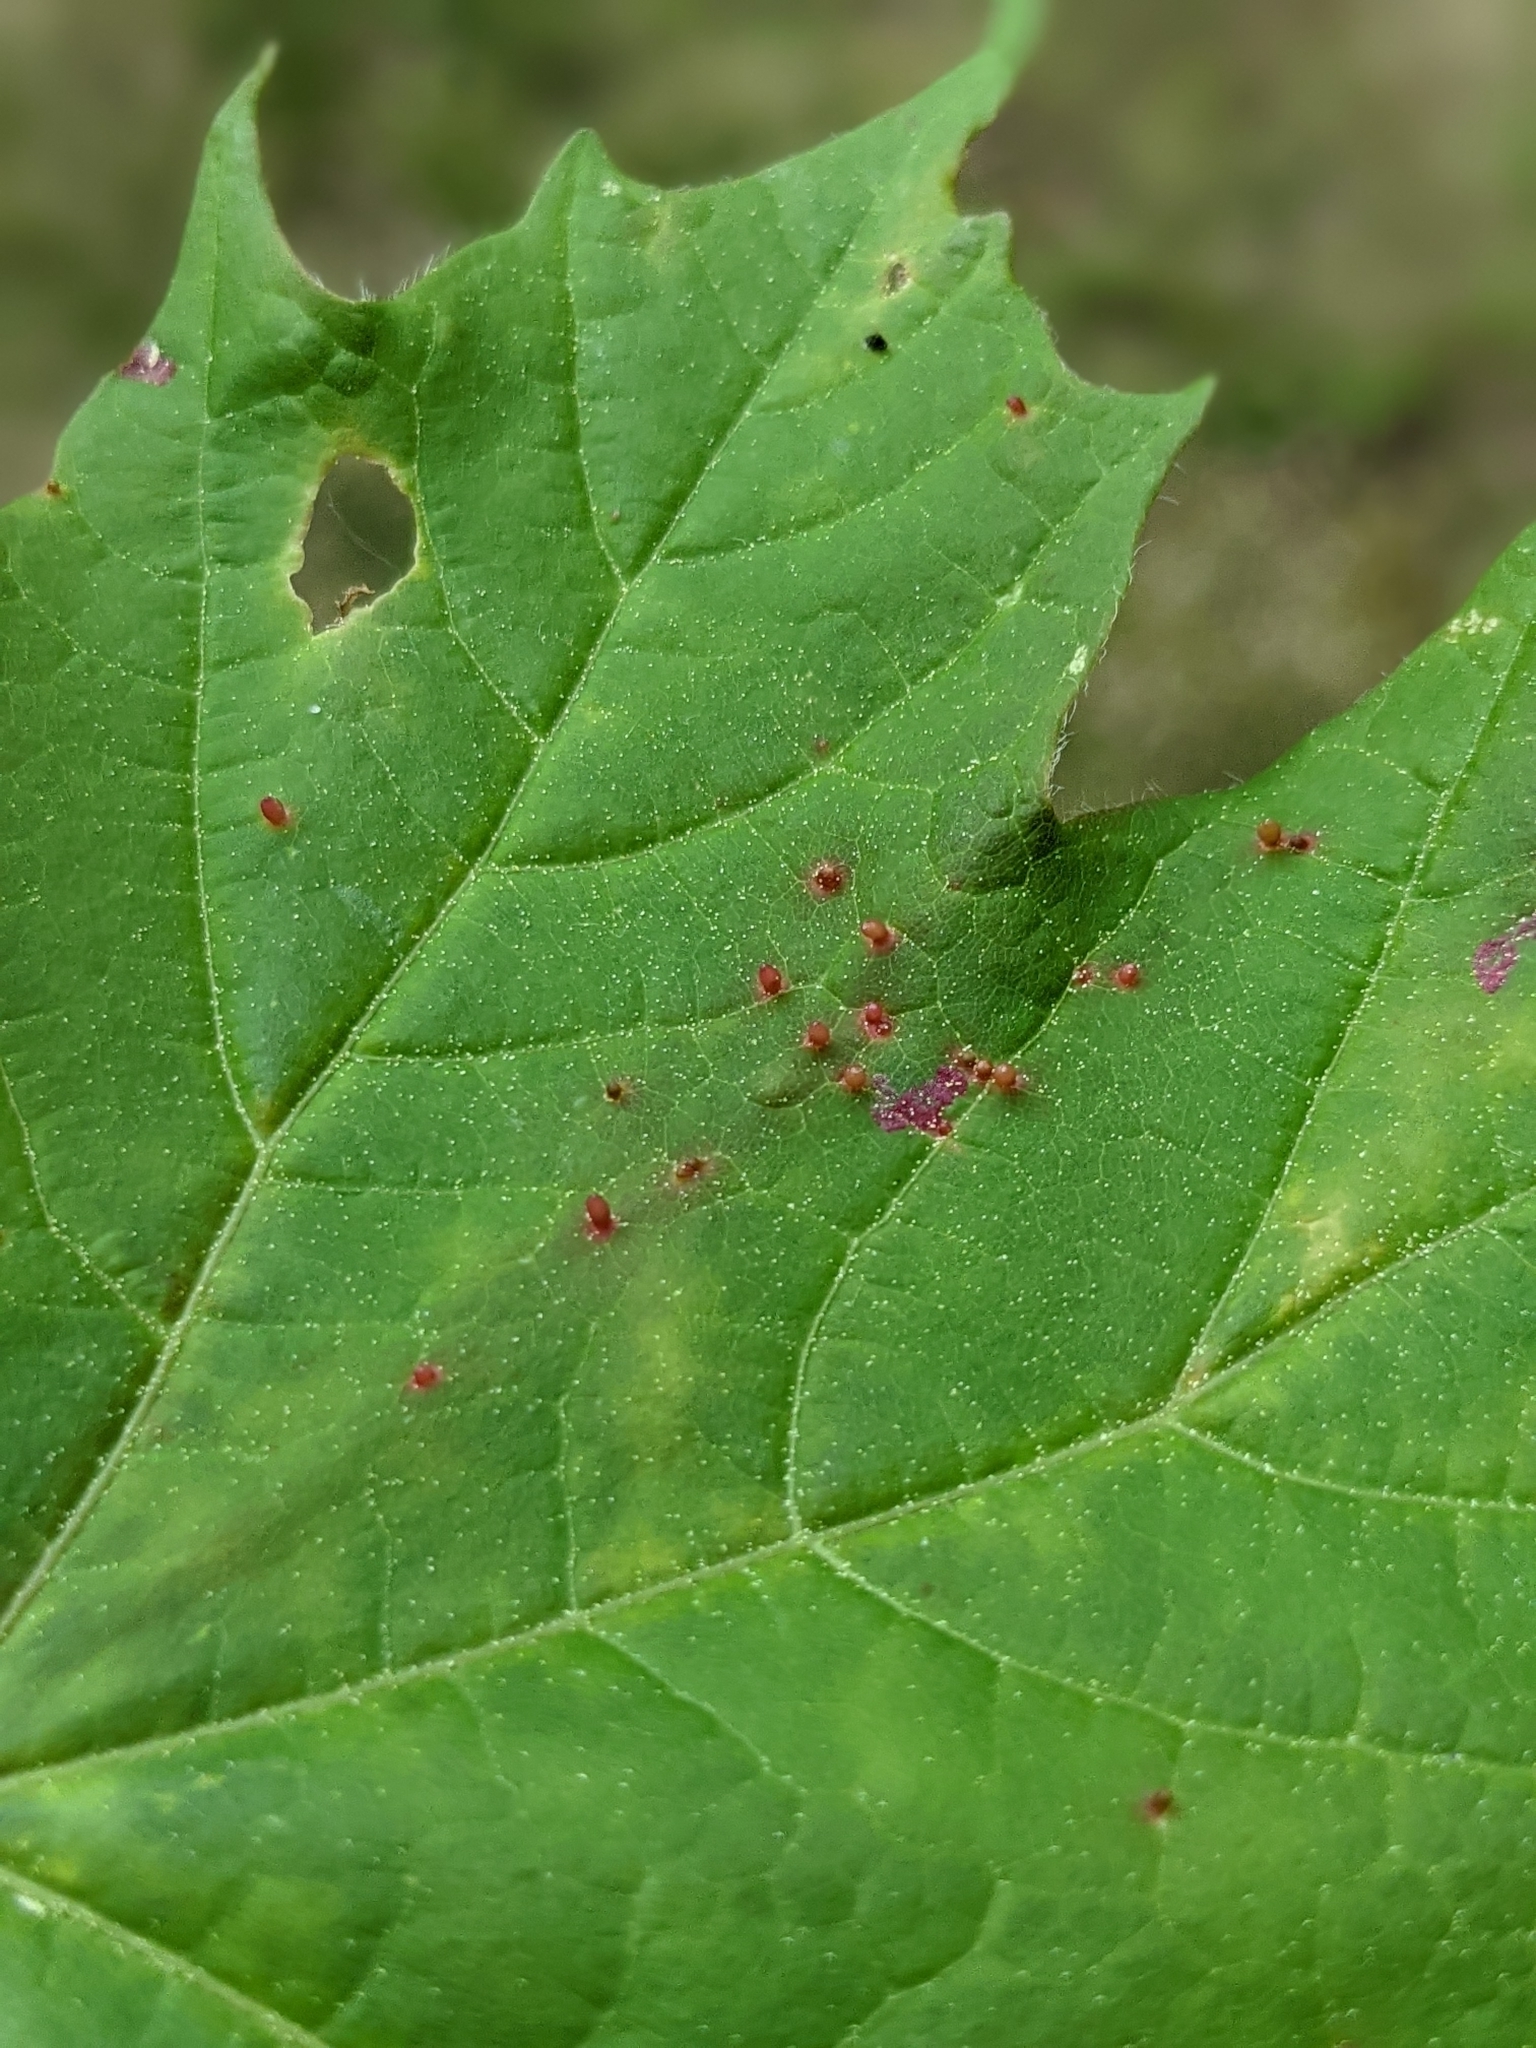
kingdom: Animalia
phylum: Arthropoda
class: Arachnida
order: Trombidiformes
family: Eriophyidae
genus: Vasates
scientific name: Vasates aceriscrumena
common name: Maple spindle gall mite
